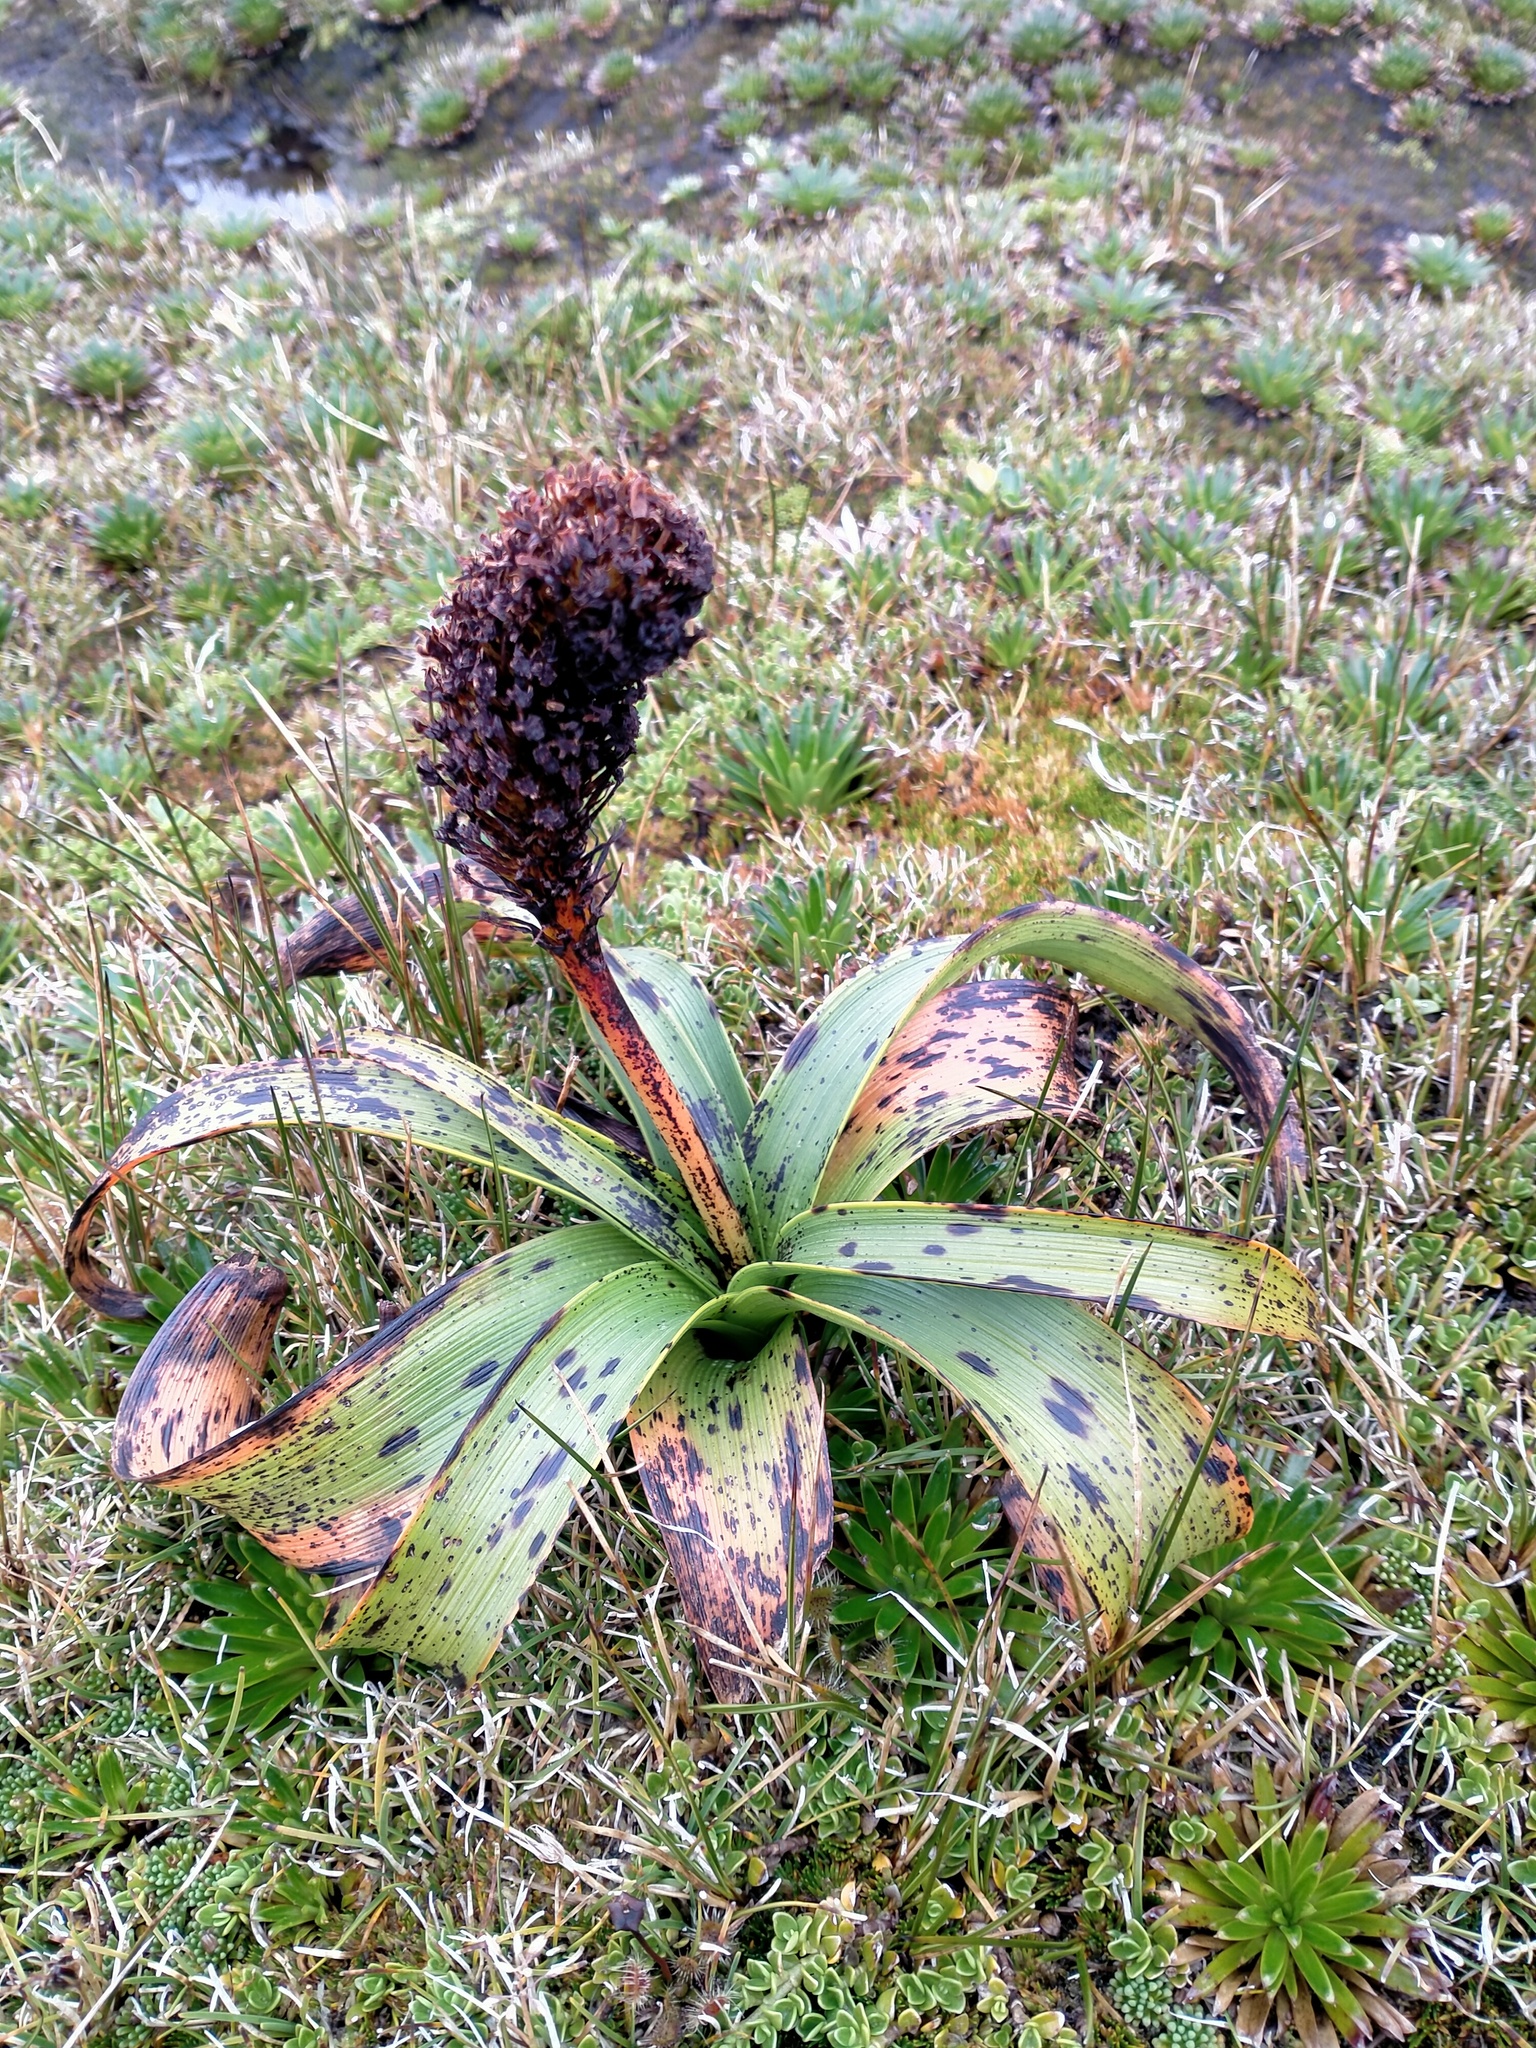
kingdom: Plantae
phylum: Tracheophyta
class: Liliopsida
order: Asparagales
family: Asphodelaceae
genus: Bulbinella
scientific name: Bulbinella rossii
